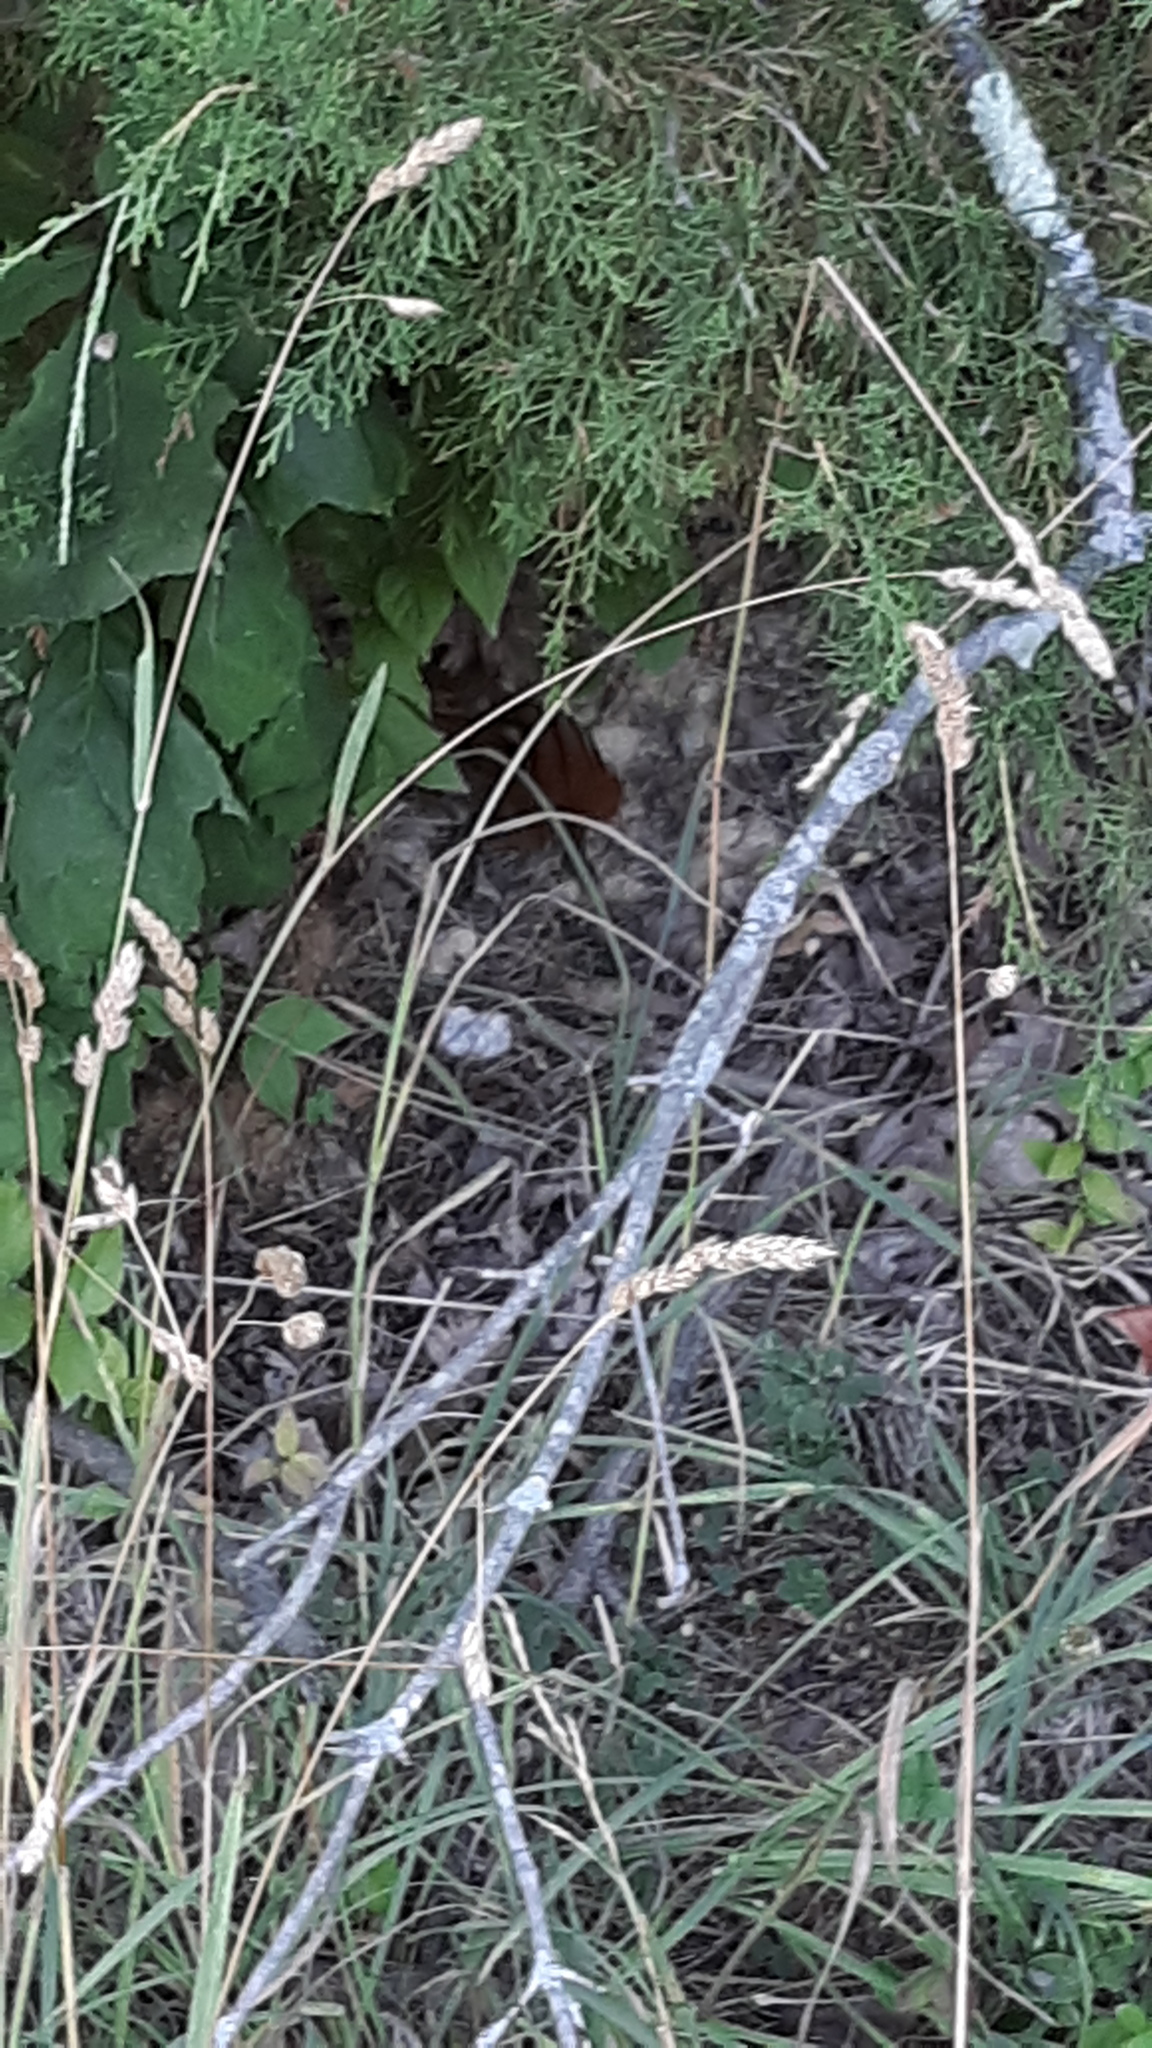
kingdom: Animalia
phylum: Chordata
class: Mammalia
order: Rodentia
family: Sciuridae
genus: Tamias
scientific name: Tamias striatus
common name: Eastern chipmunk
